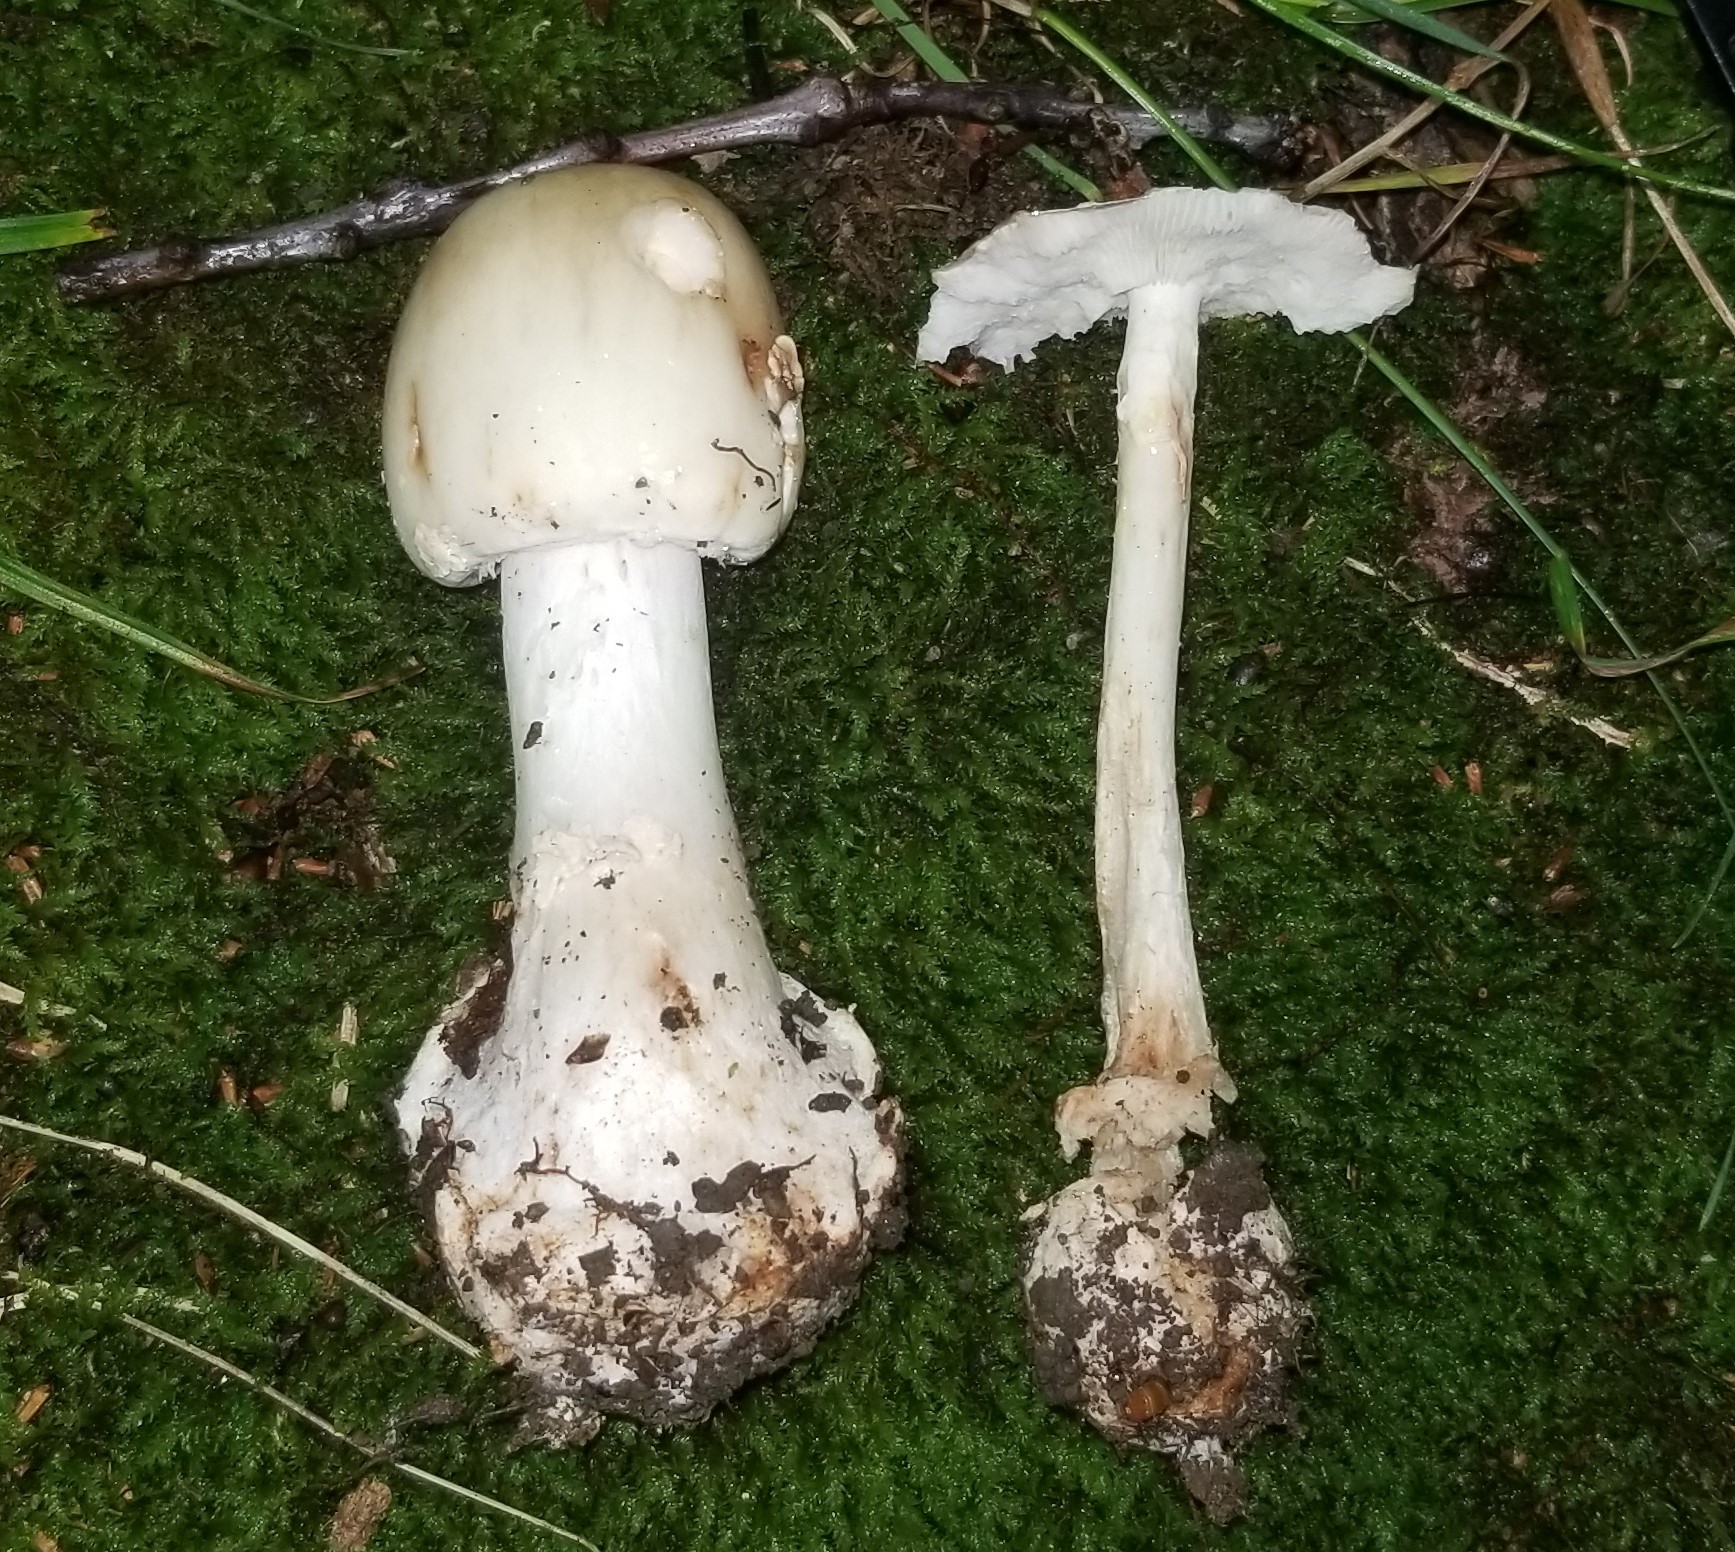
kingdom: Fungi
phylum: Basidiomycota
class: Agaricomycetes
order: Agaricales
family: Amanitaceae
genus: Amanita
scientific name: Amanita brunnescens
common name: Brown american star-footed amanita
